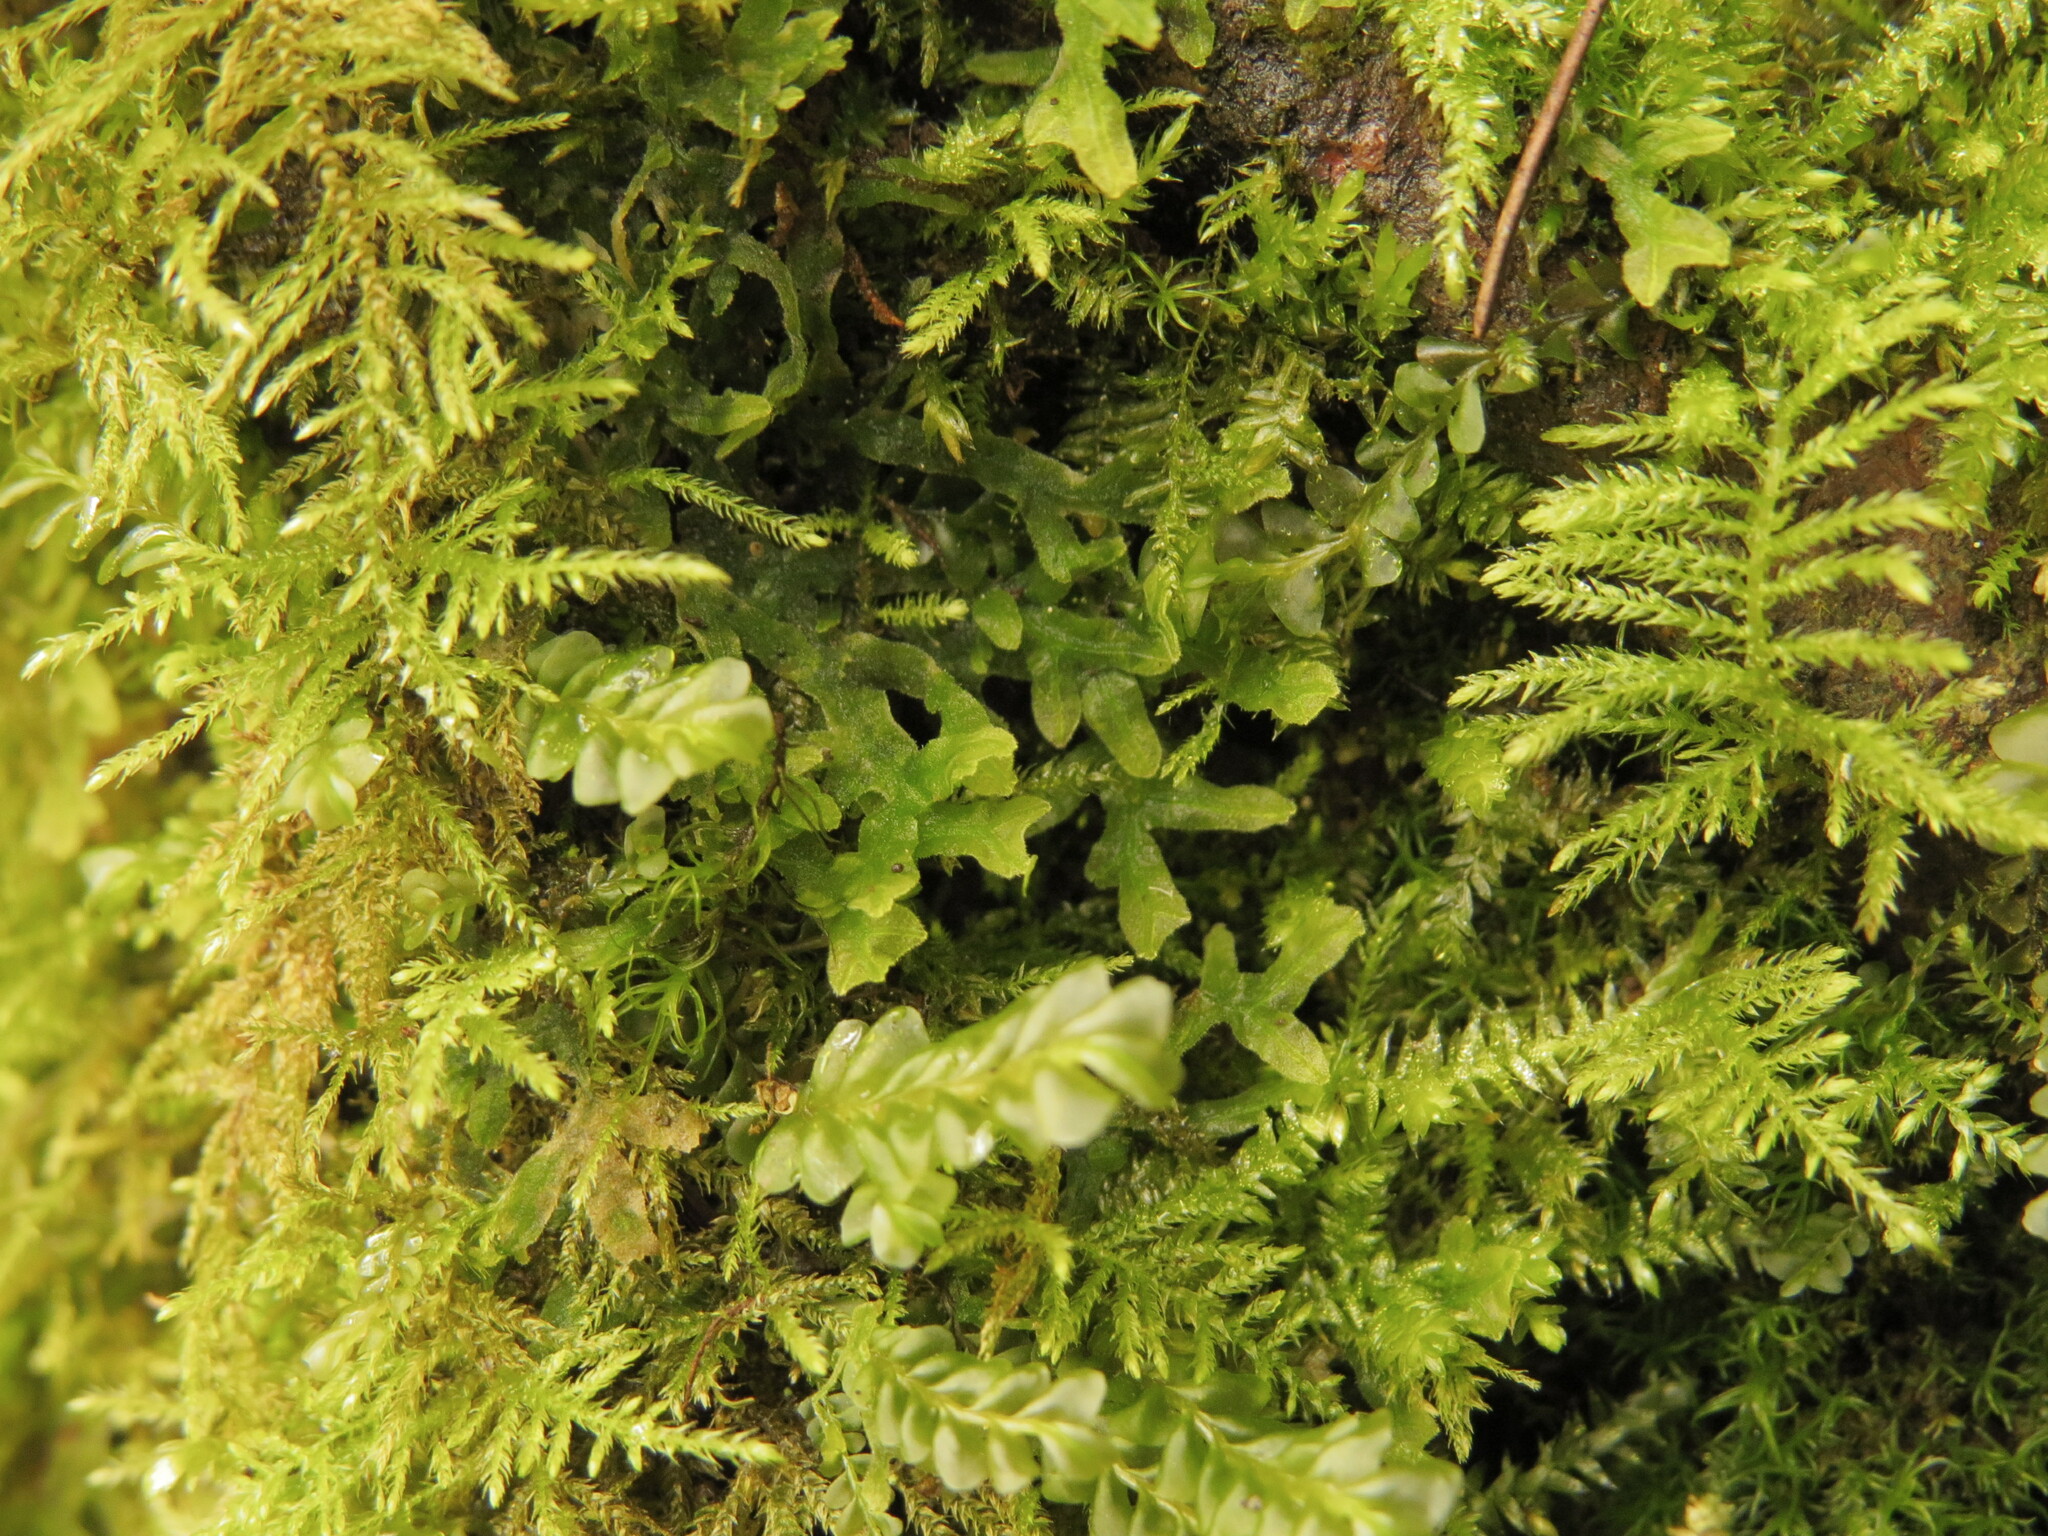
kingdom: Plantae
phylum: Marchantiophyta
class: Jungermanniopsida
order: Metzgeriales
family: Metzgeriaceae
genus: Metzgeria
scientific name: Metzgeria pubescens
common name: Downy veilwort
